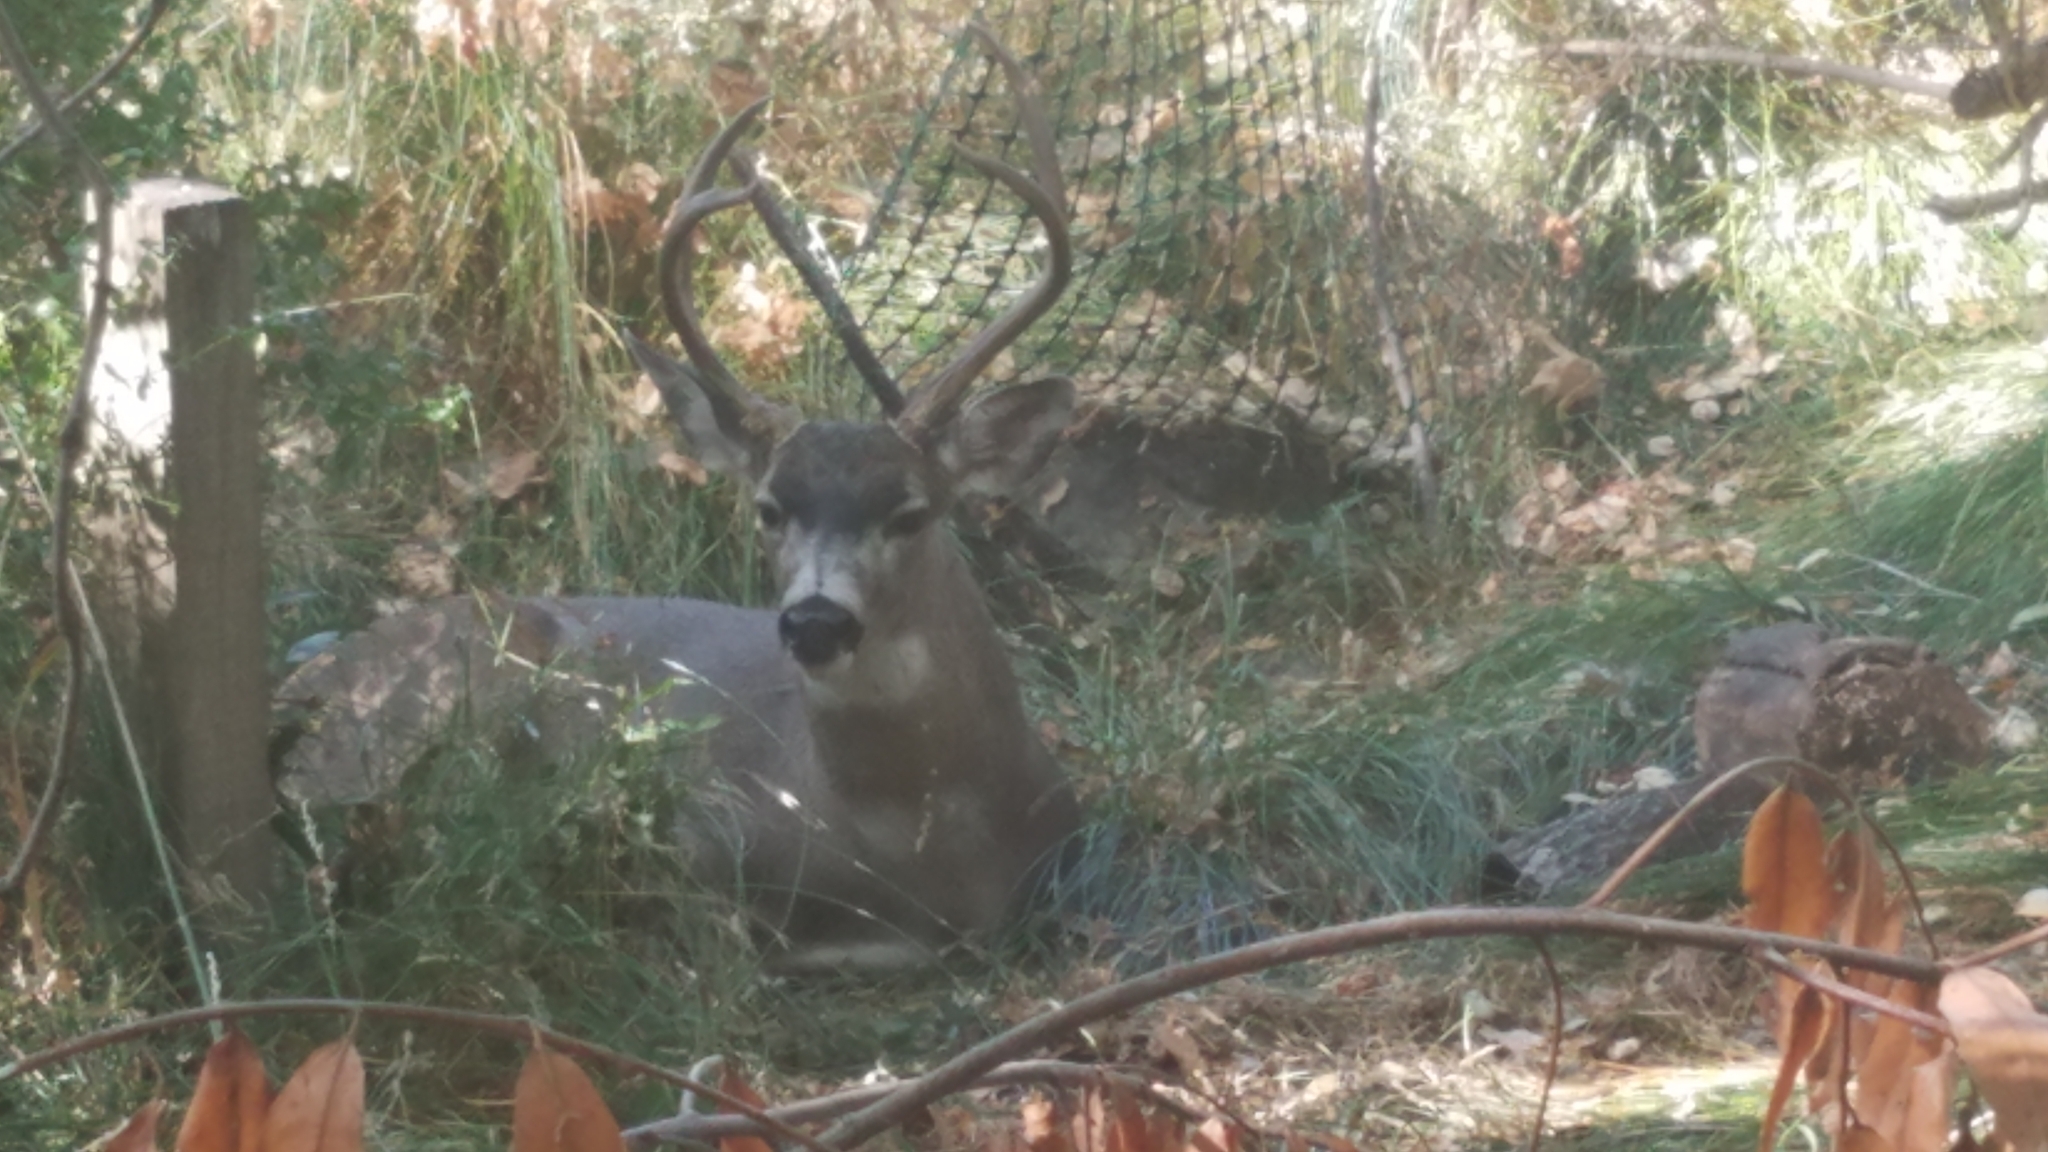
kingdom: Animalia
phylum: Chordata
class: Mammalia
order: Artiodactyla
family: Cervidae
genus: Odocoileus
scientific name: Odocoileus hemionus
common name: Mule deer
